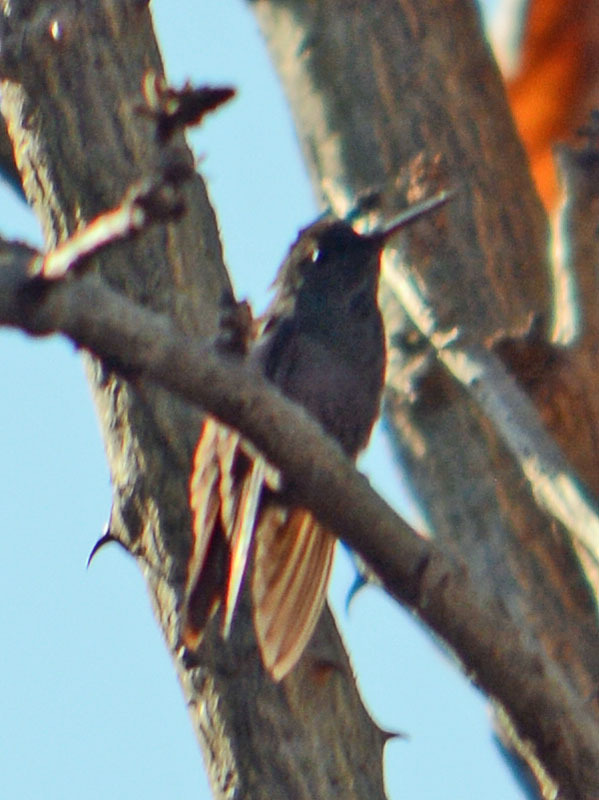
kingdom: Animalia
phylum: Chordata
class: Aves
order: Apodiformes
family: Trochilidae
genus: Saucerottia
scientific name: Saucerottia beryllina
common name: Berylline hummingbird
